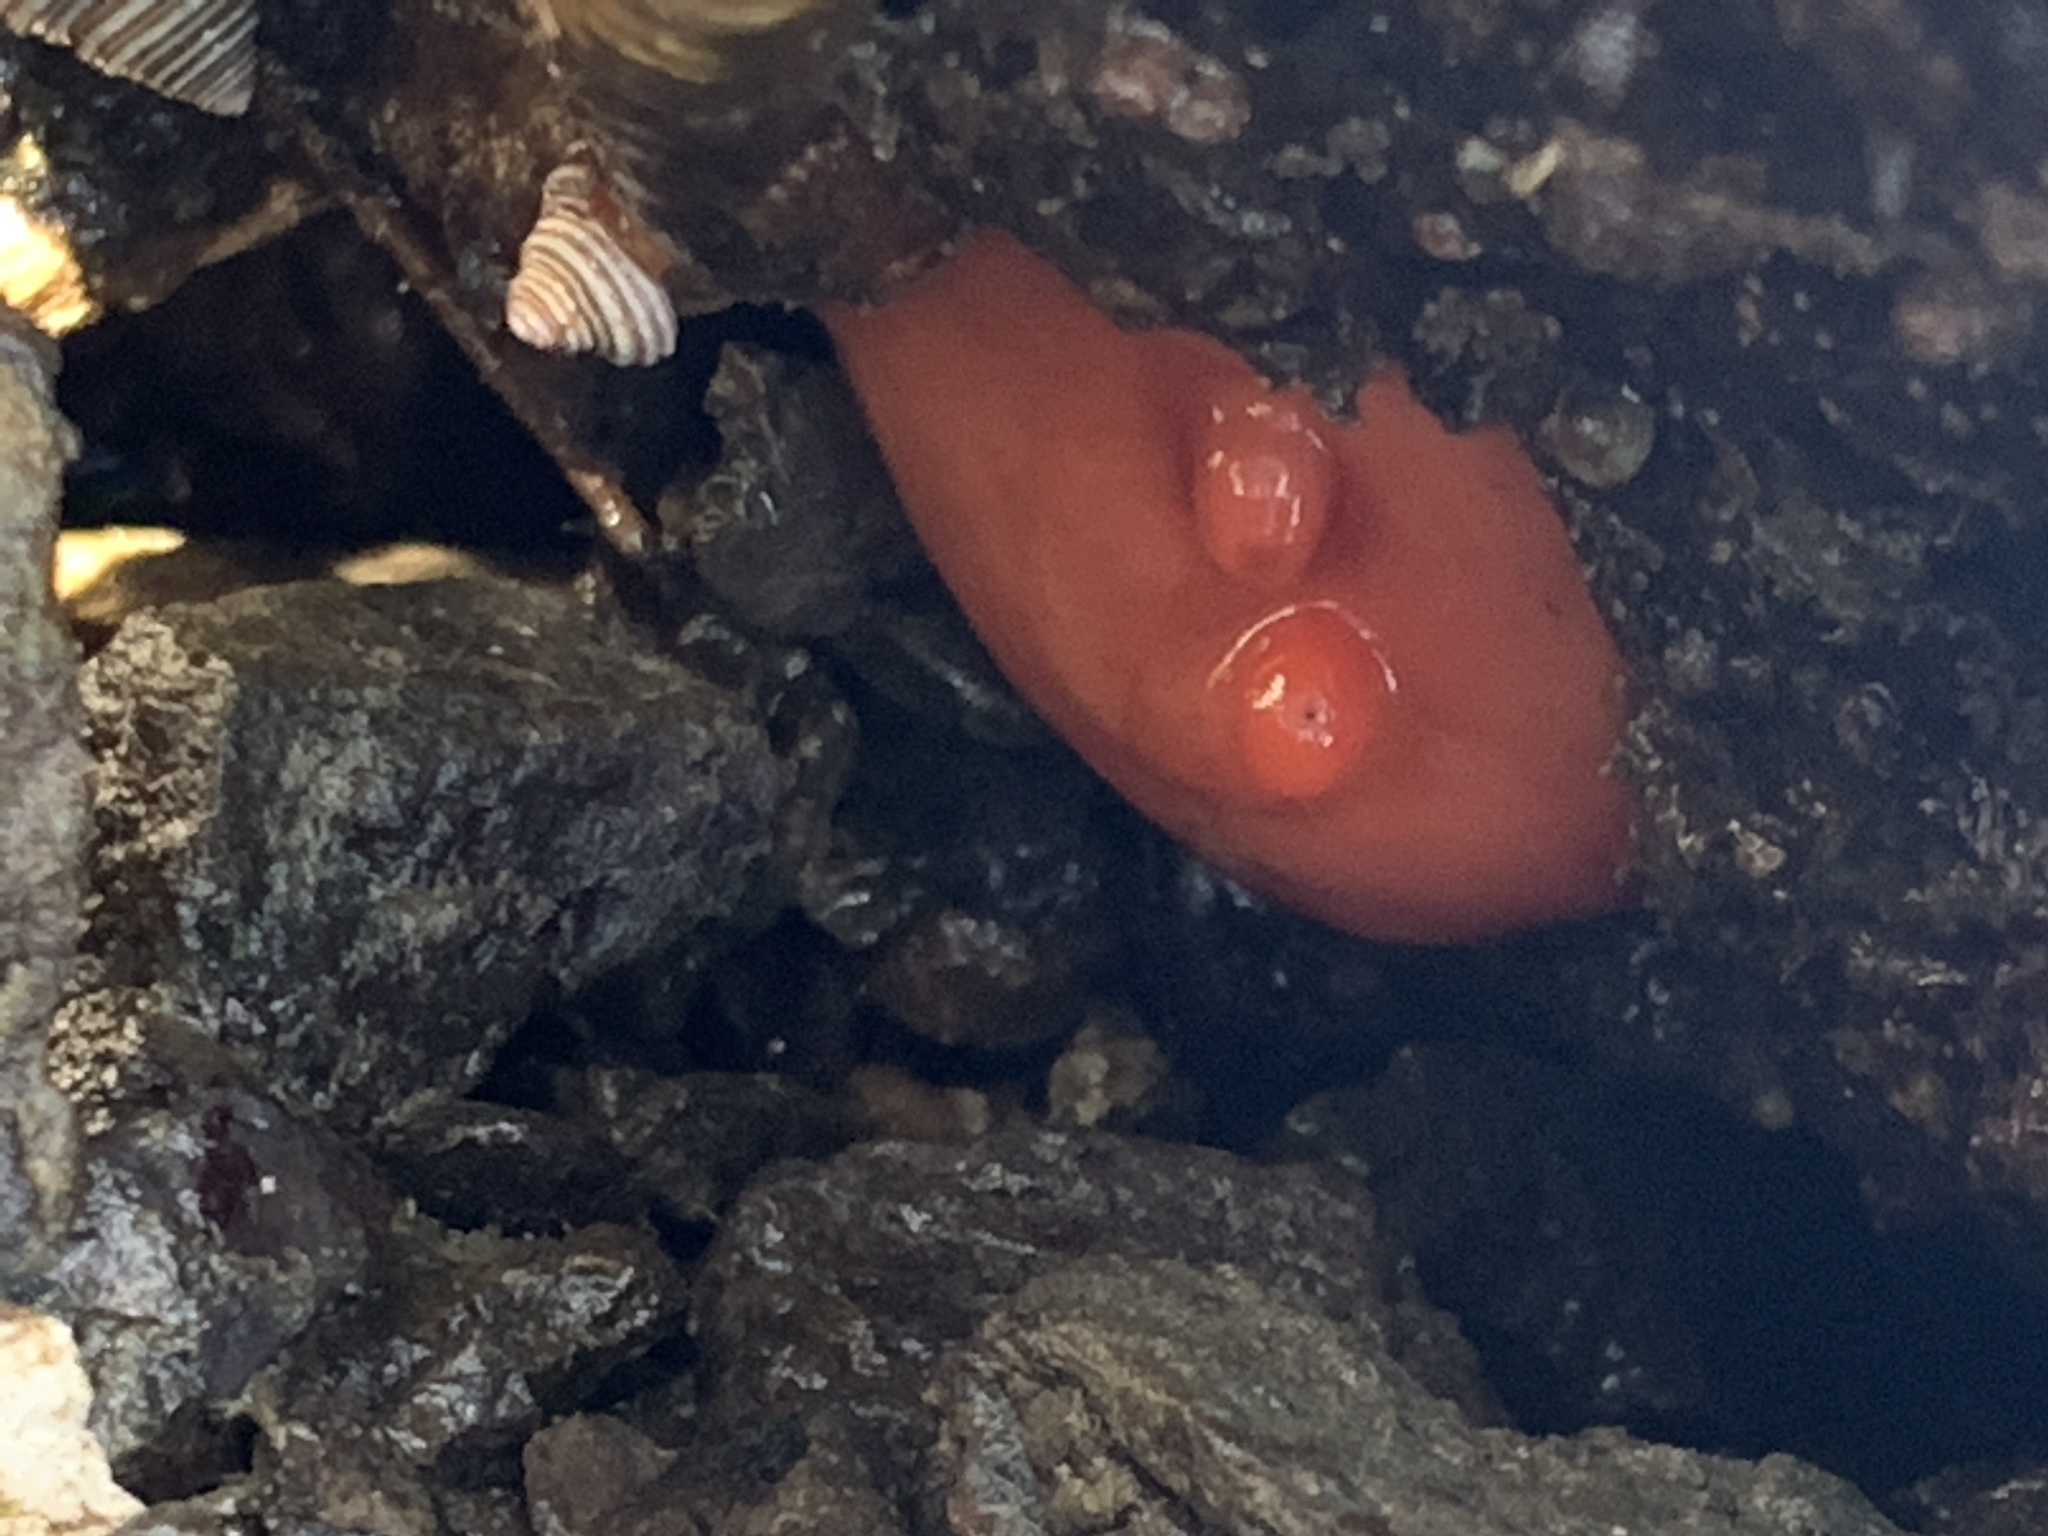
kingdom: Animalia
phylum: Chordata
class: Ascidiacea
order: Stolidobranchia
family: Styelidae
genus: Cnemidocarpa
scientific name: Cnemidocarpa finmarkiensis
